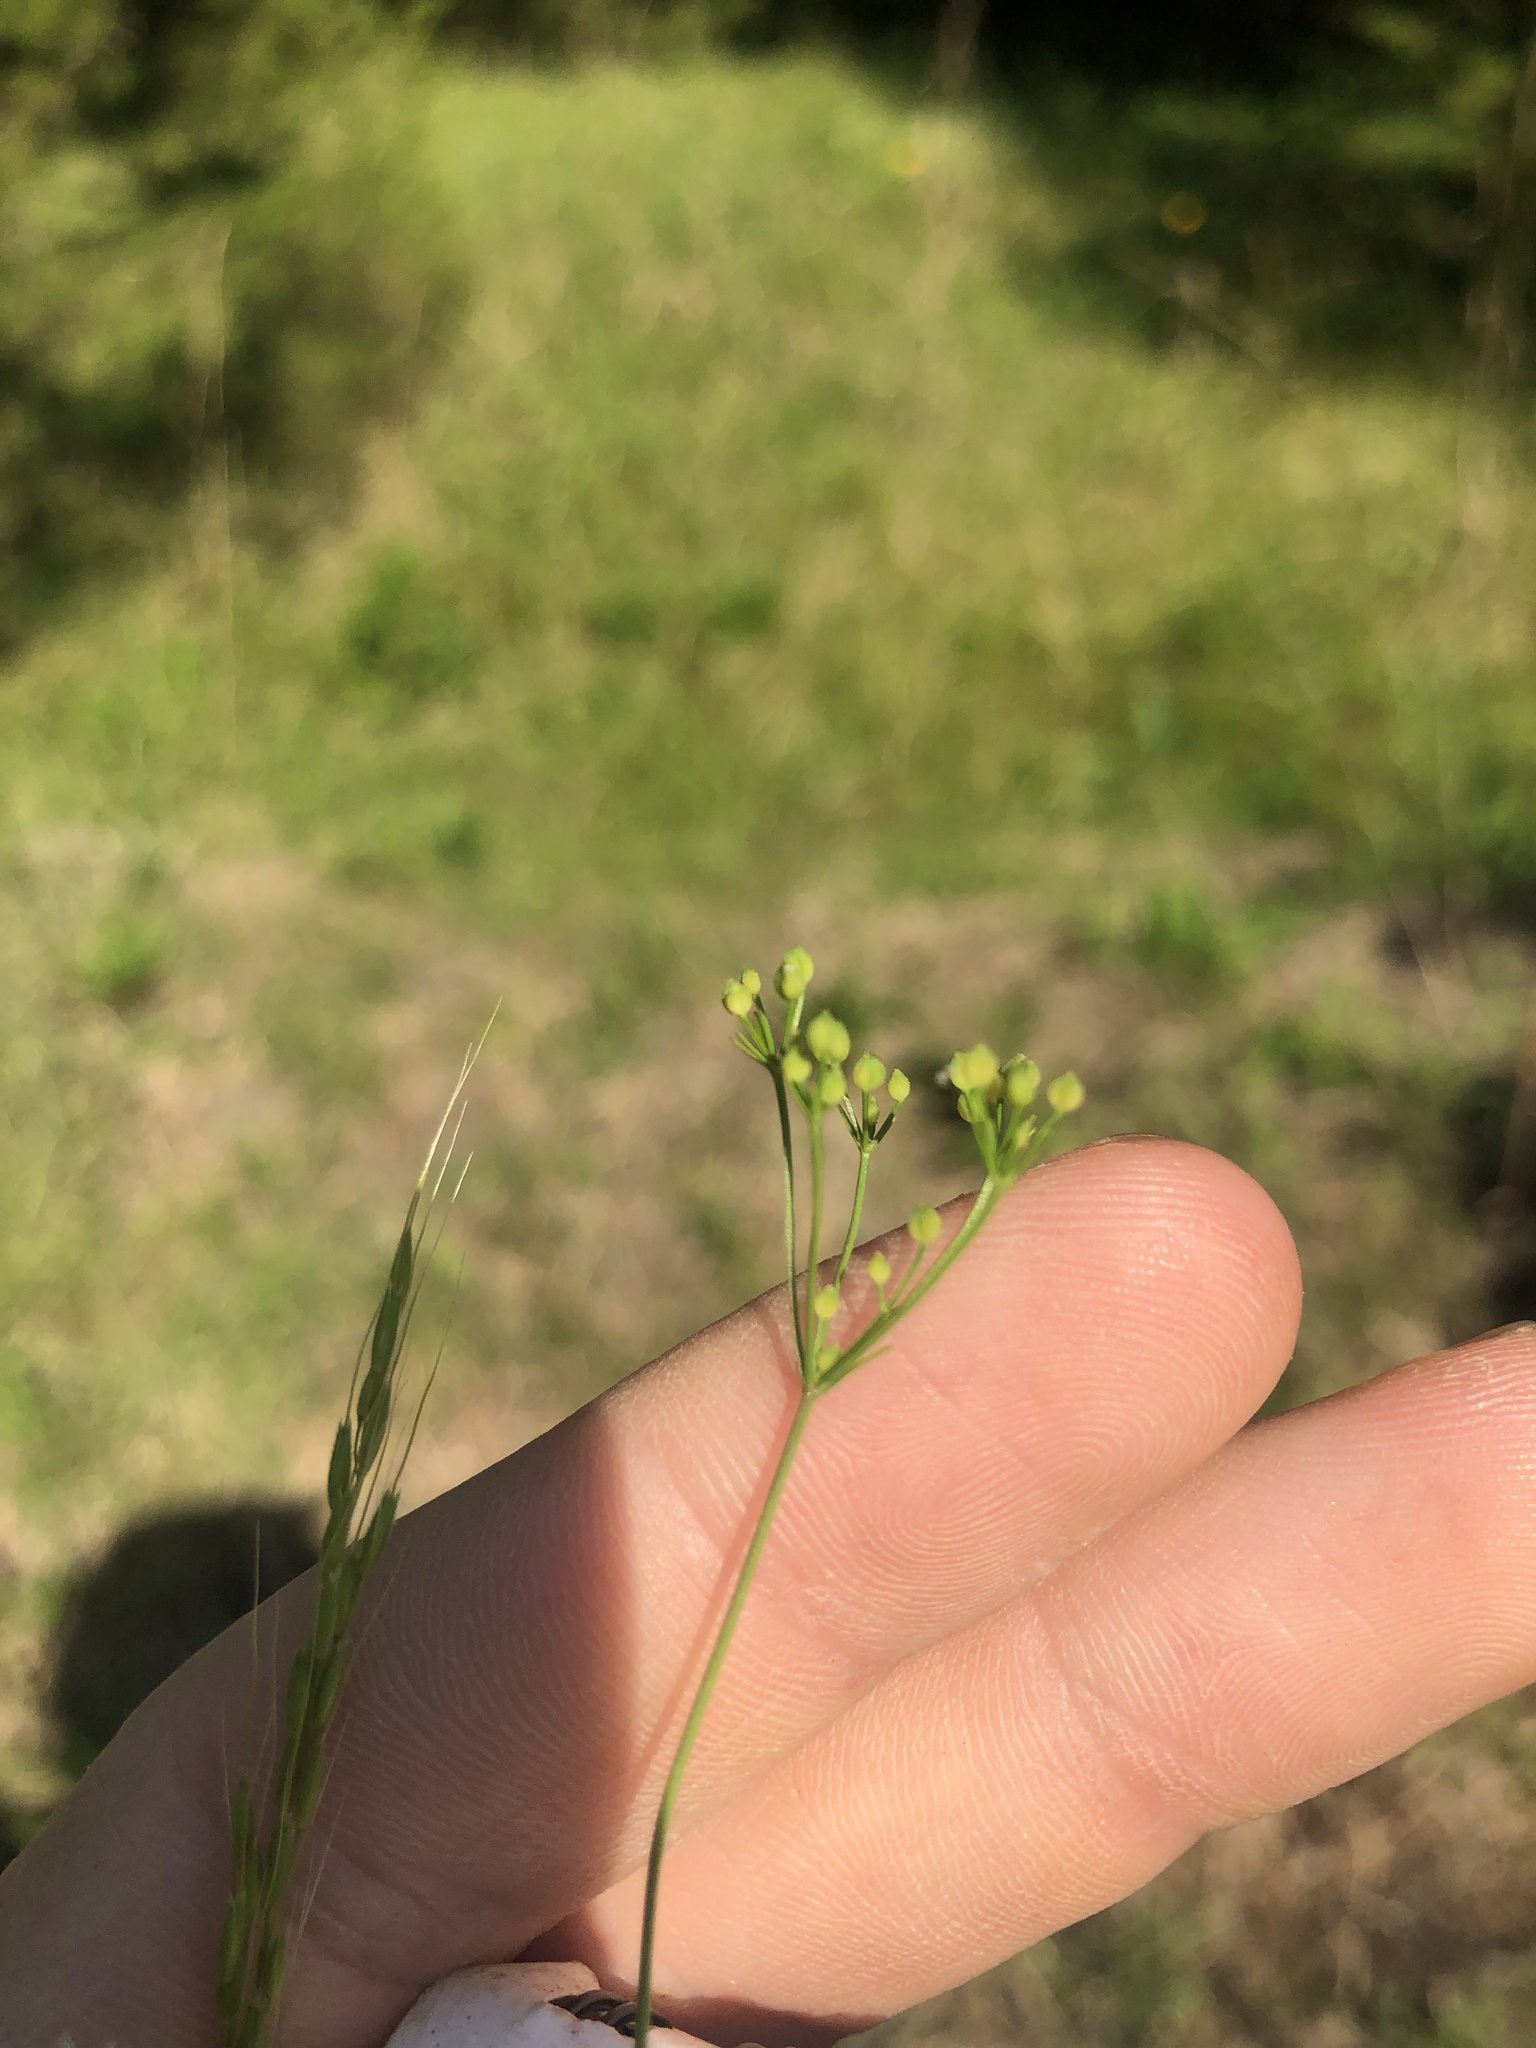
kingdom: Plantae
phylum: Tracheophyta
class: Magnoliopsida
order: Apiales
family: Apiaceae
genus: Spermolepis
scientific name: Spermolepis inermis
